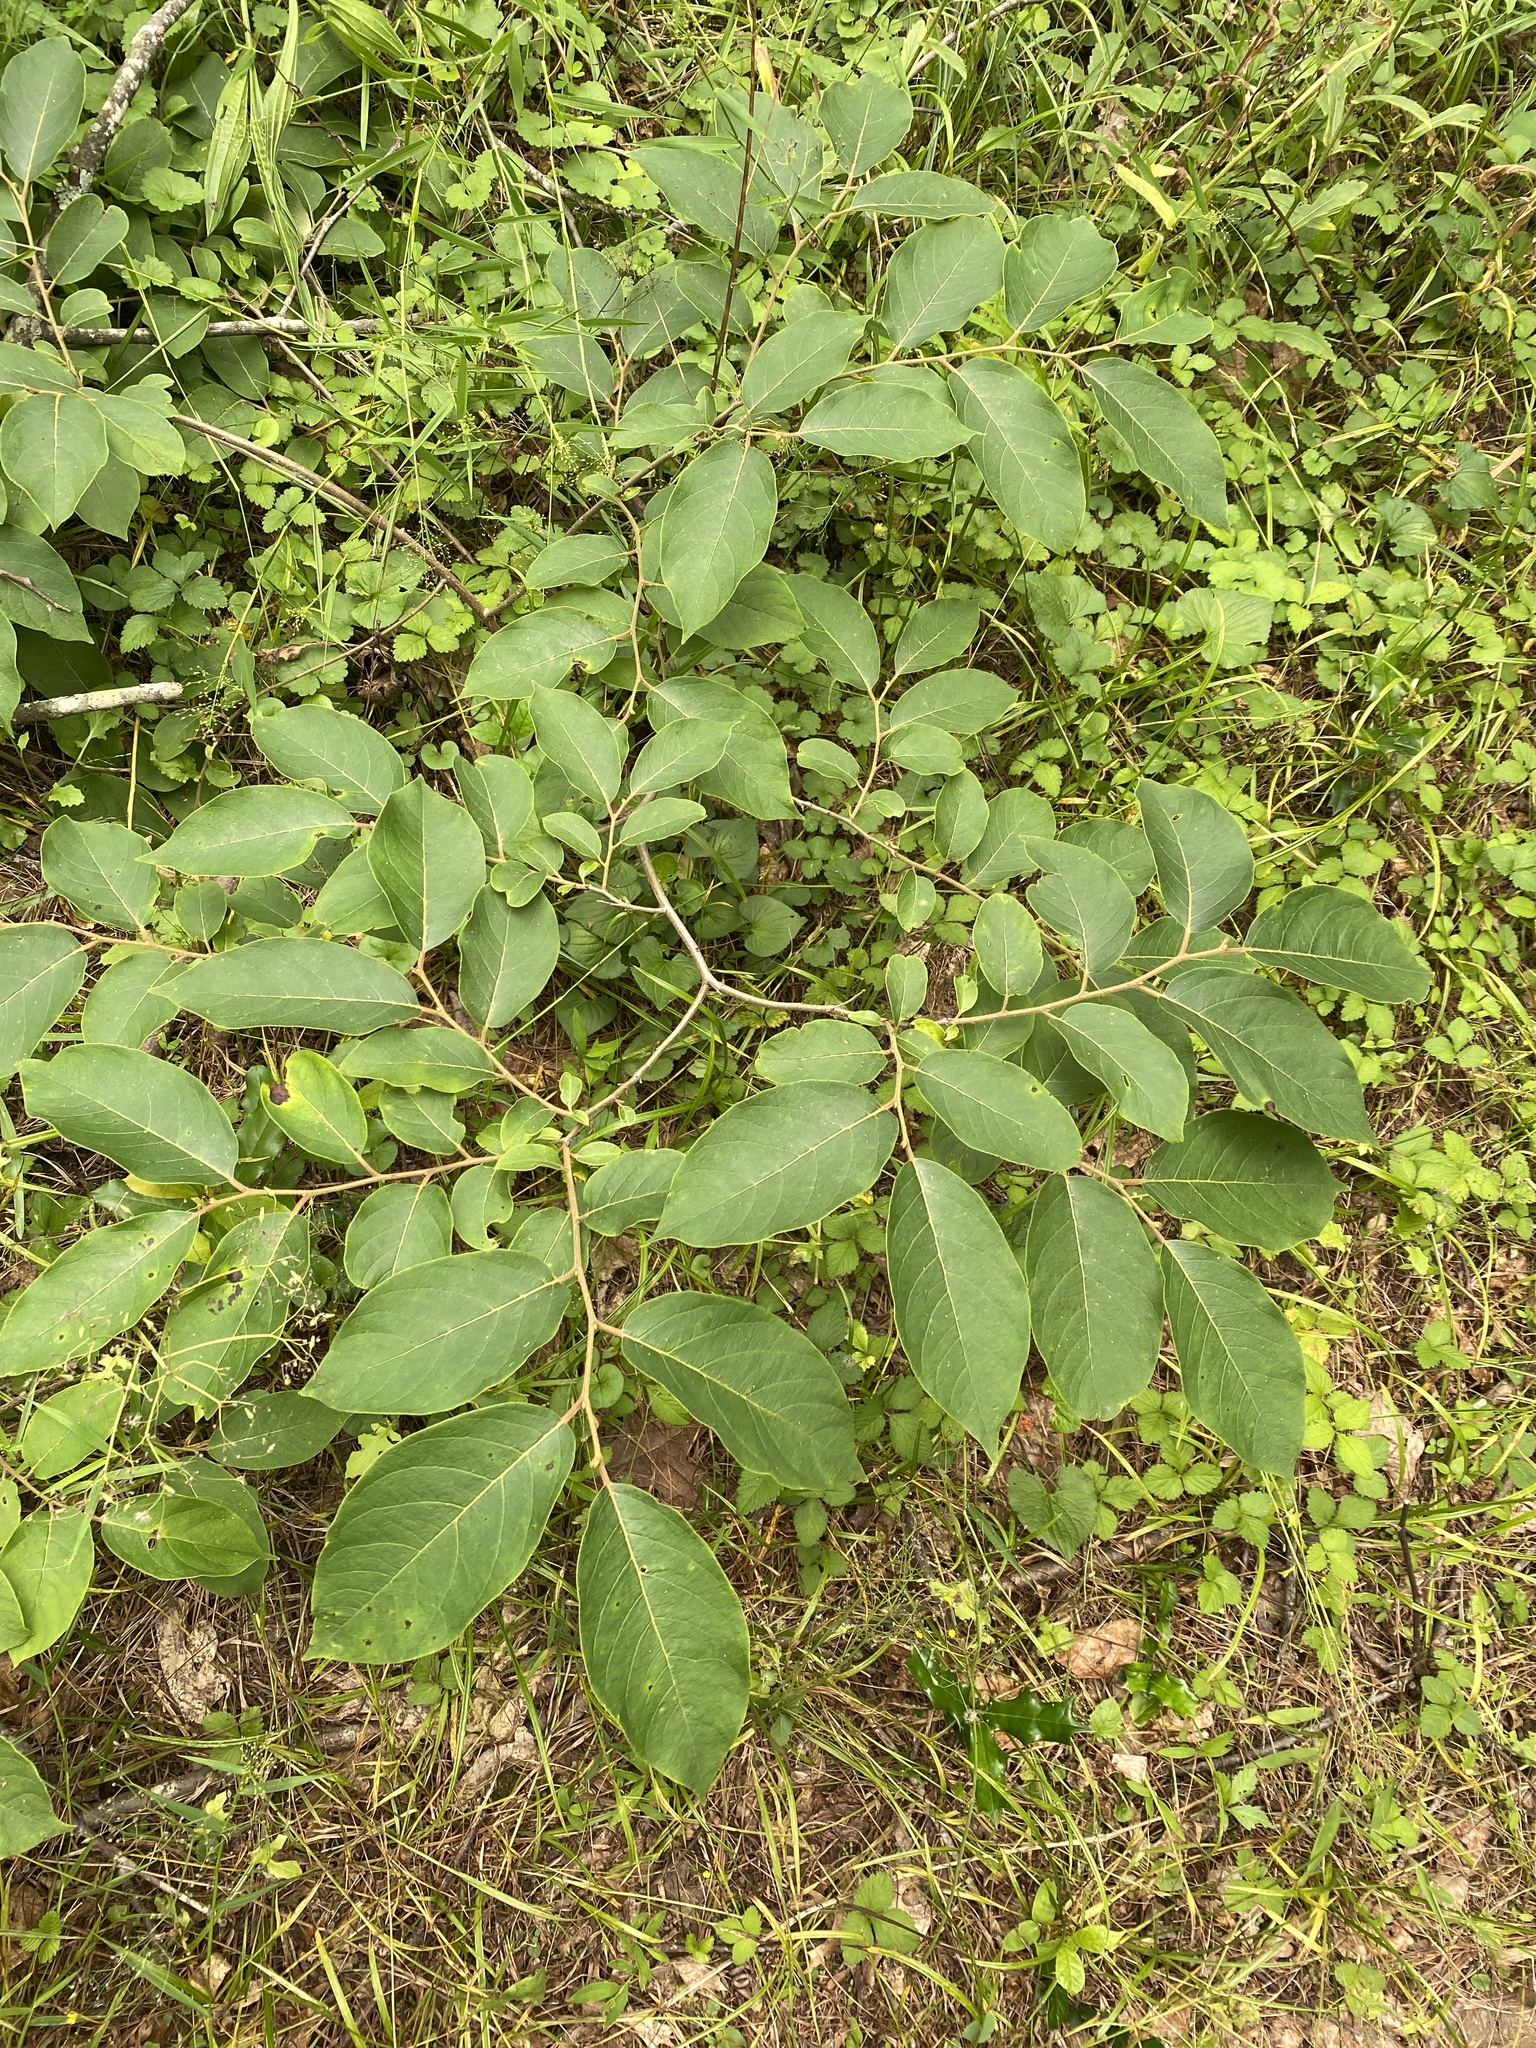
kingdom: Plantae
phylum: Tracheophyta
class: Magnoliopsida
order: Ericales
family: Ebenaceae
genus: Diospyros
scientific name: Diospyros virginiana
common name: Persimmon
